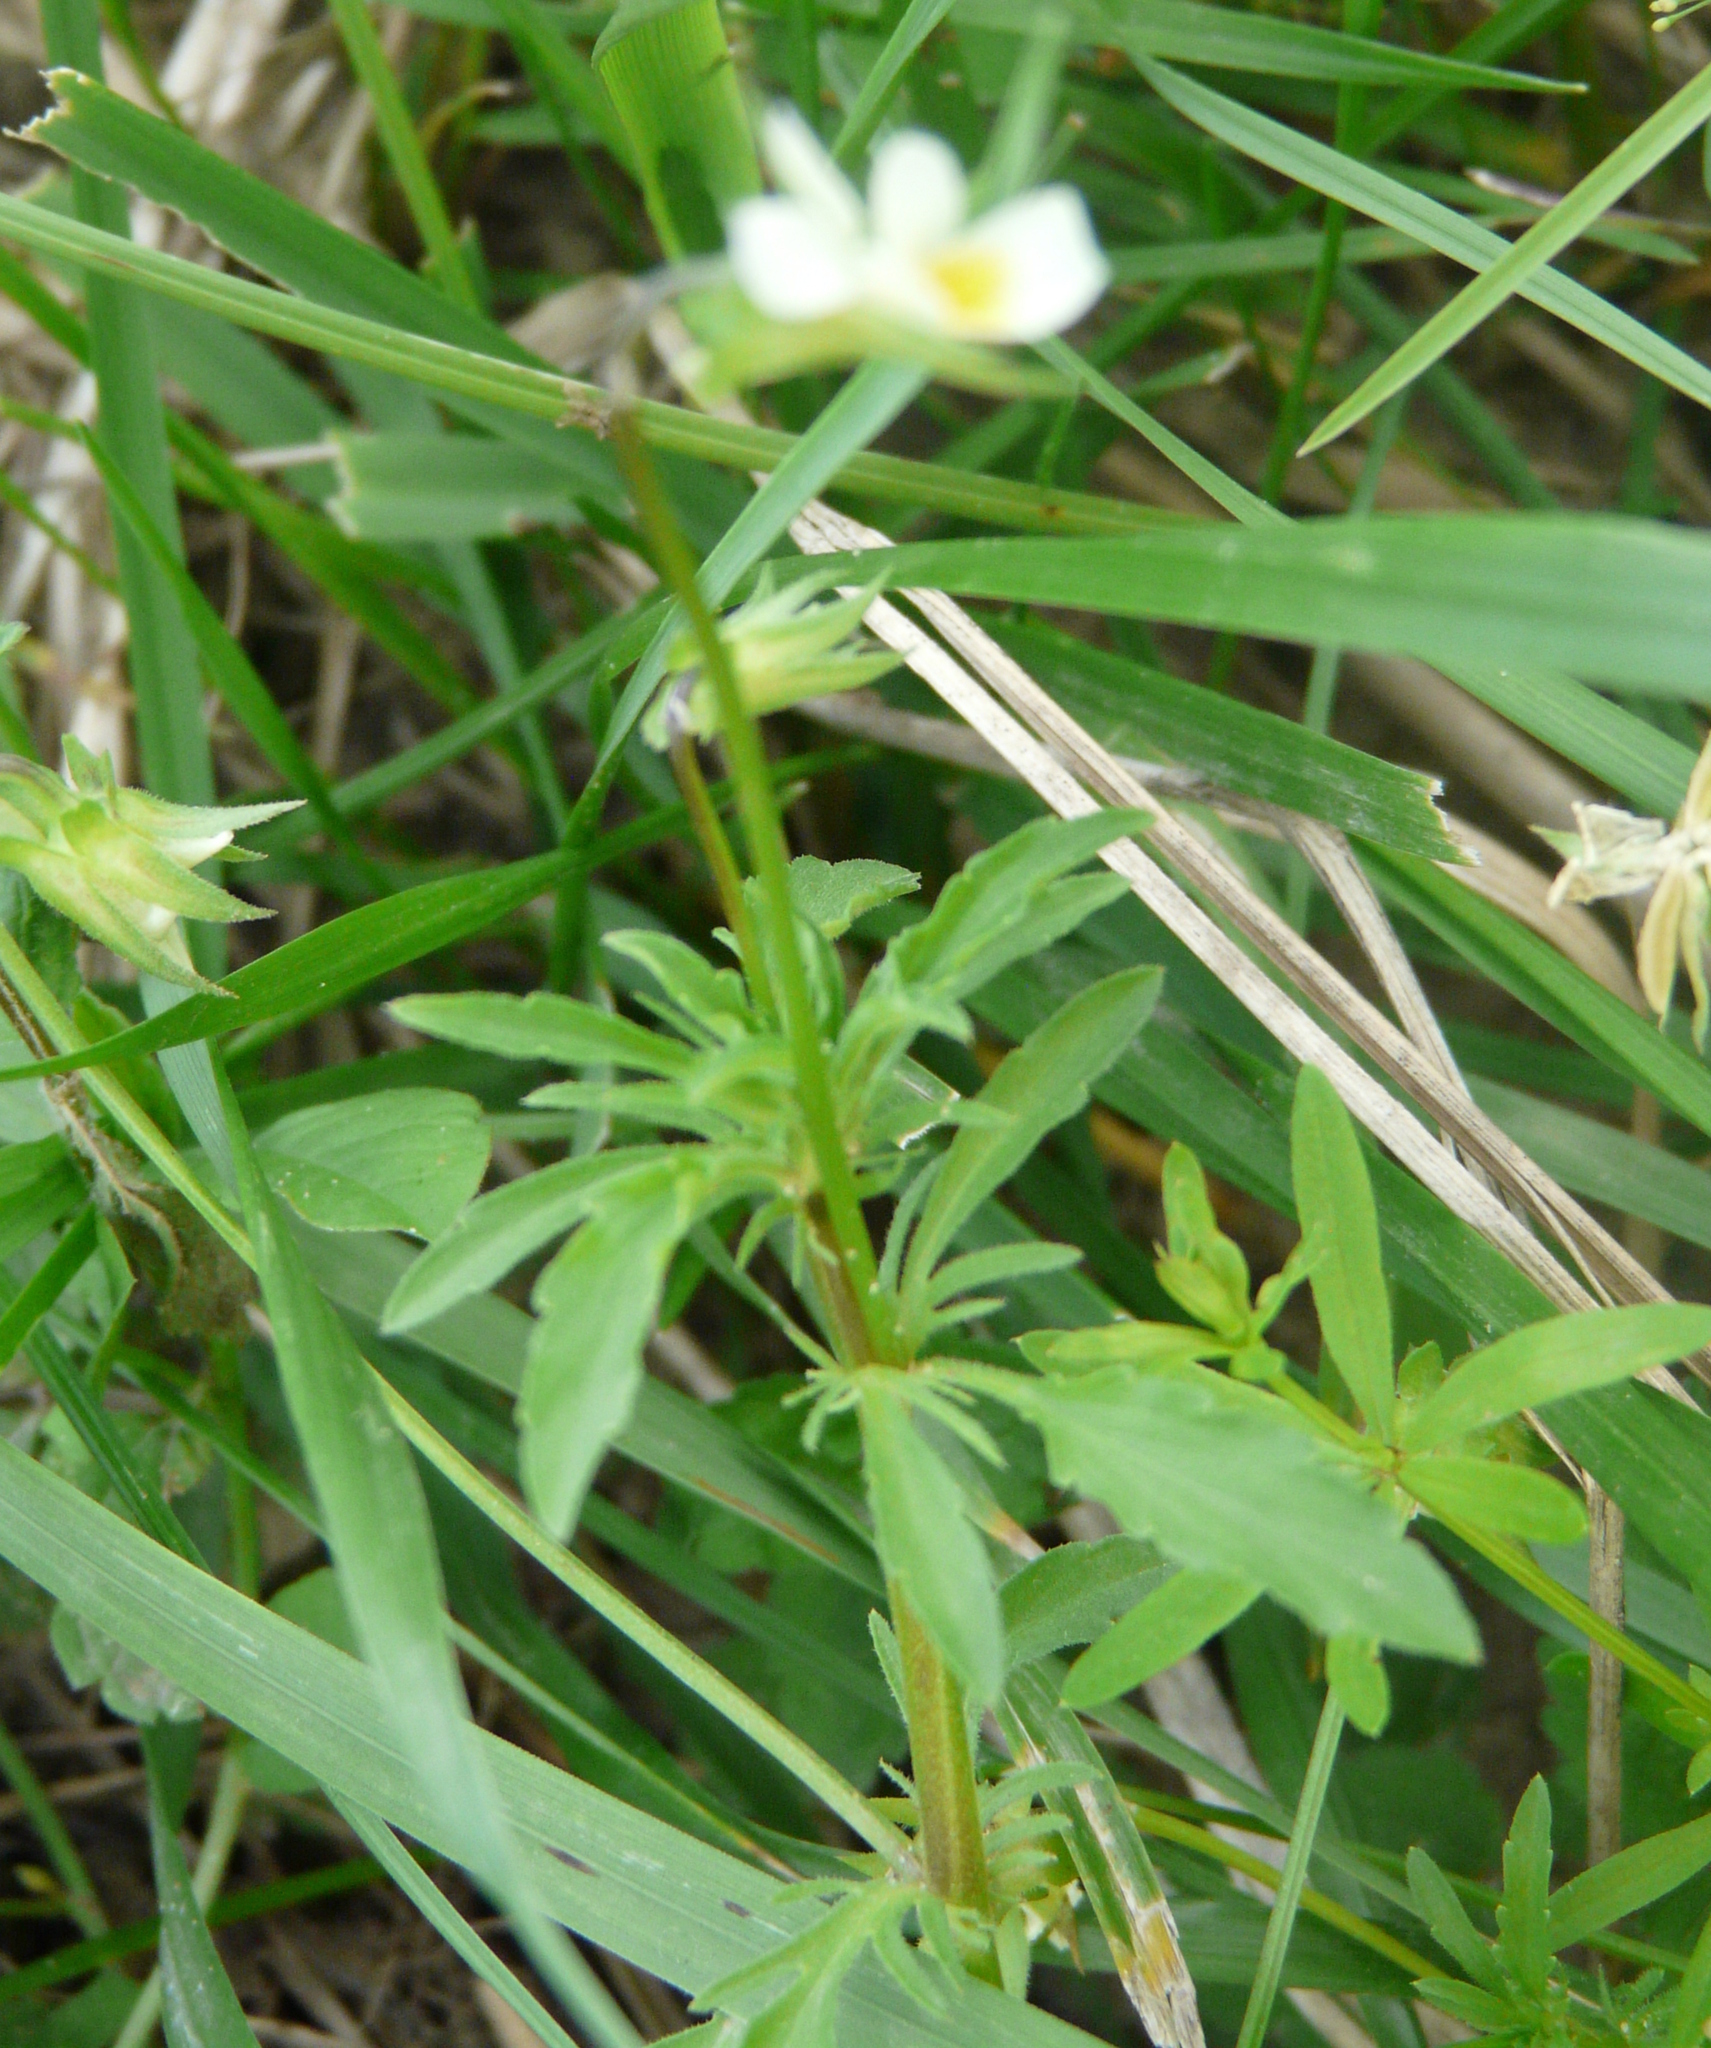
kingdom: Plantae
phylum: Tracheophyta
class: Magnoliopsida
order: Malpighiales
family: Violaceae
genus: Viola
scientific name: Viola arvensis
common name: Field pansy
